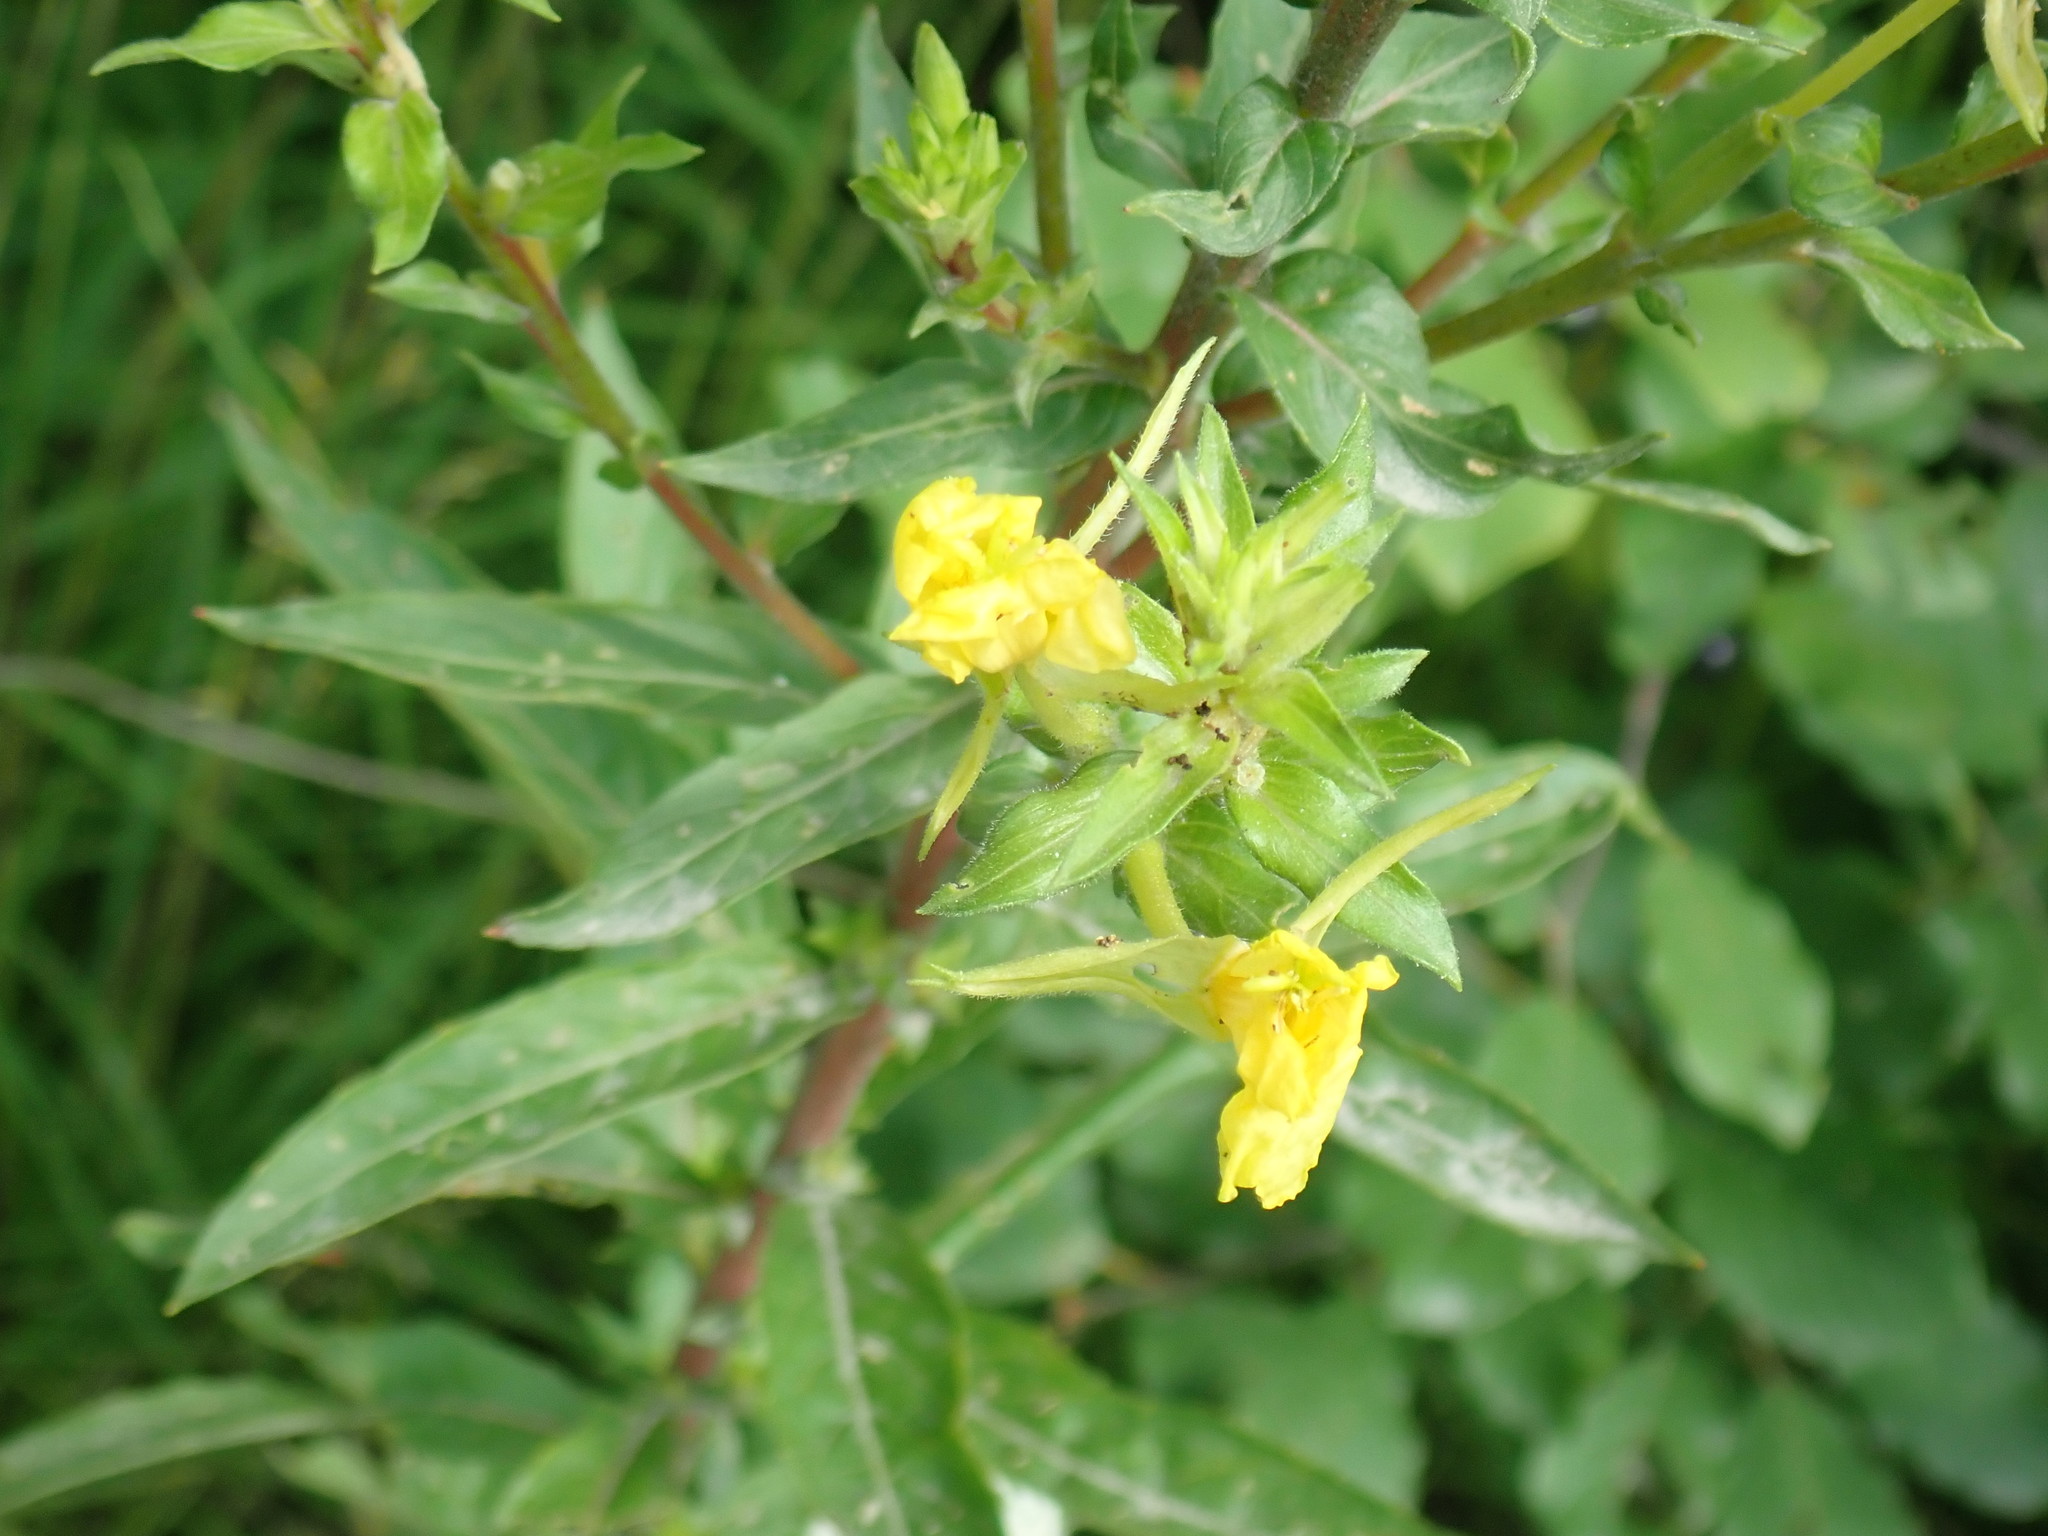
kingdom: Plantae
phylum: Tracheophyta
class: Magnoliopsida
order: Myrtales
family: Onagraceae
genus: Oenothera
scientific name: Oenothera biennis
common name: Common evening-primrose
